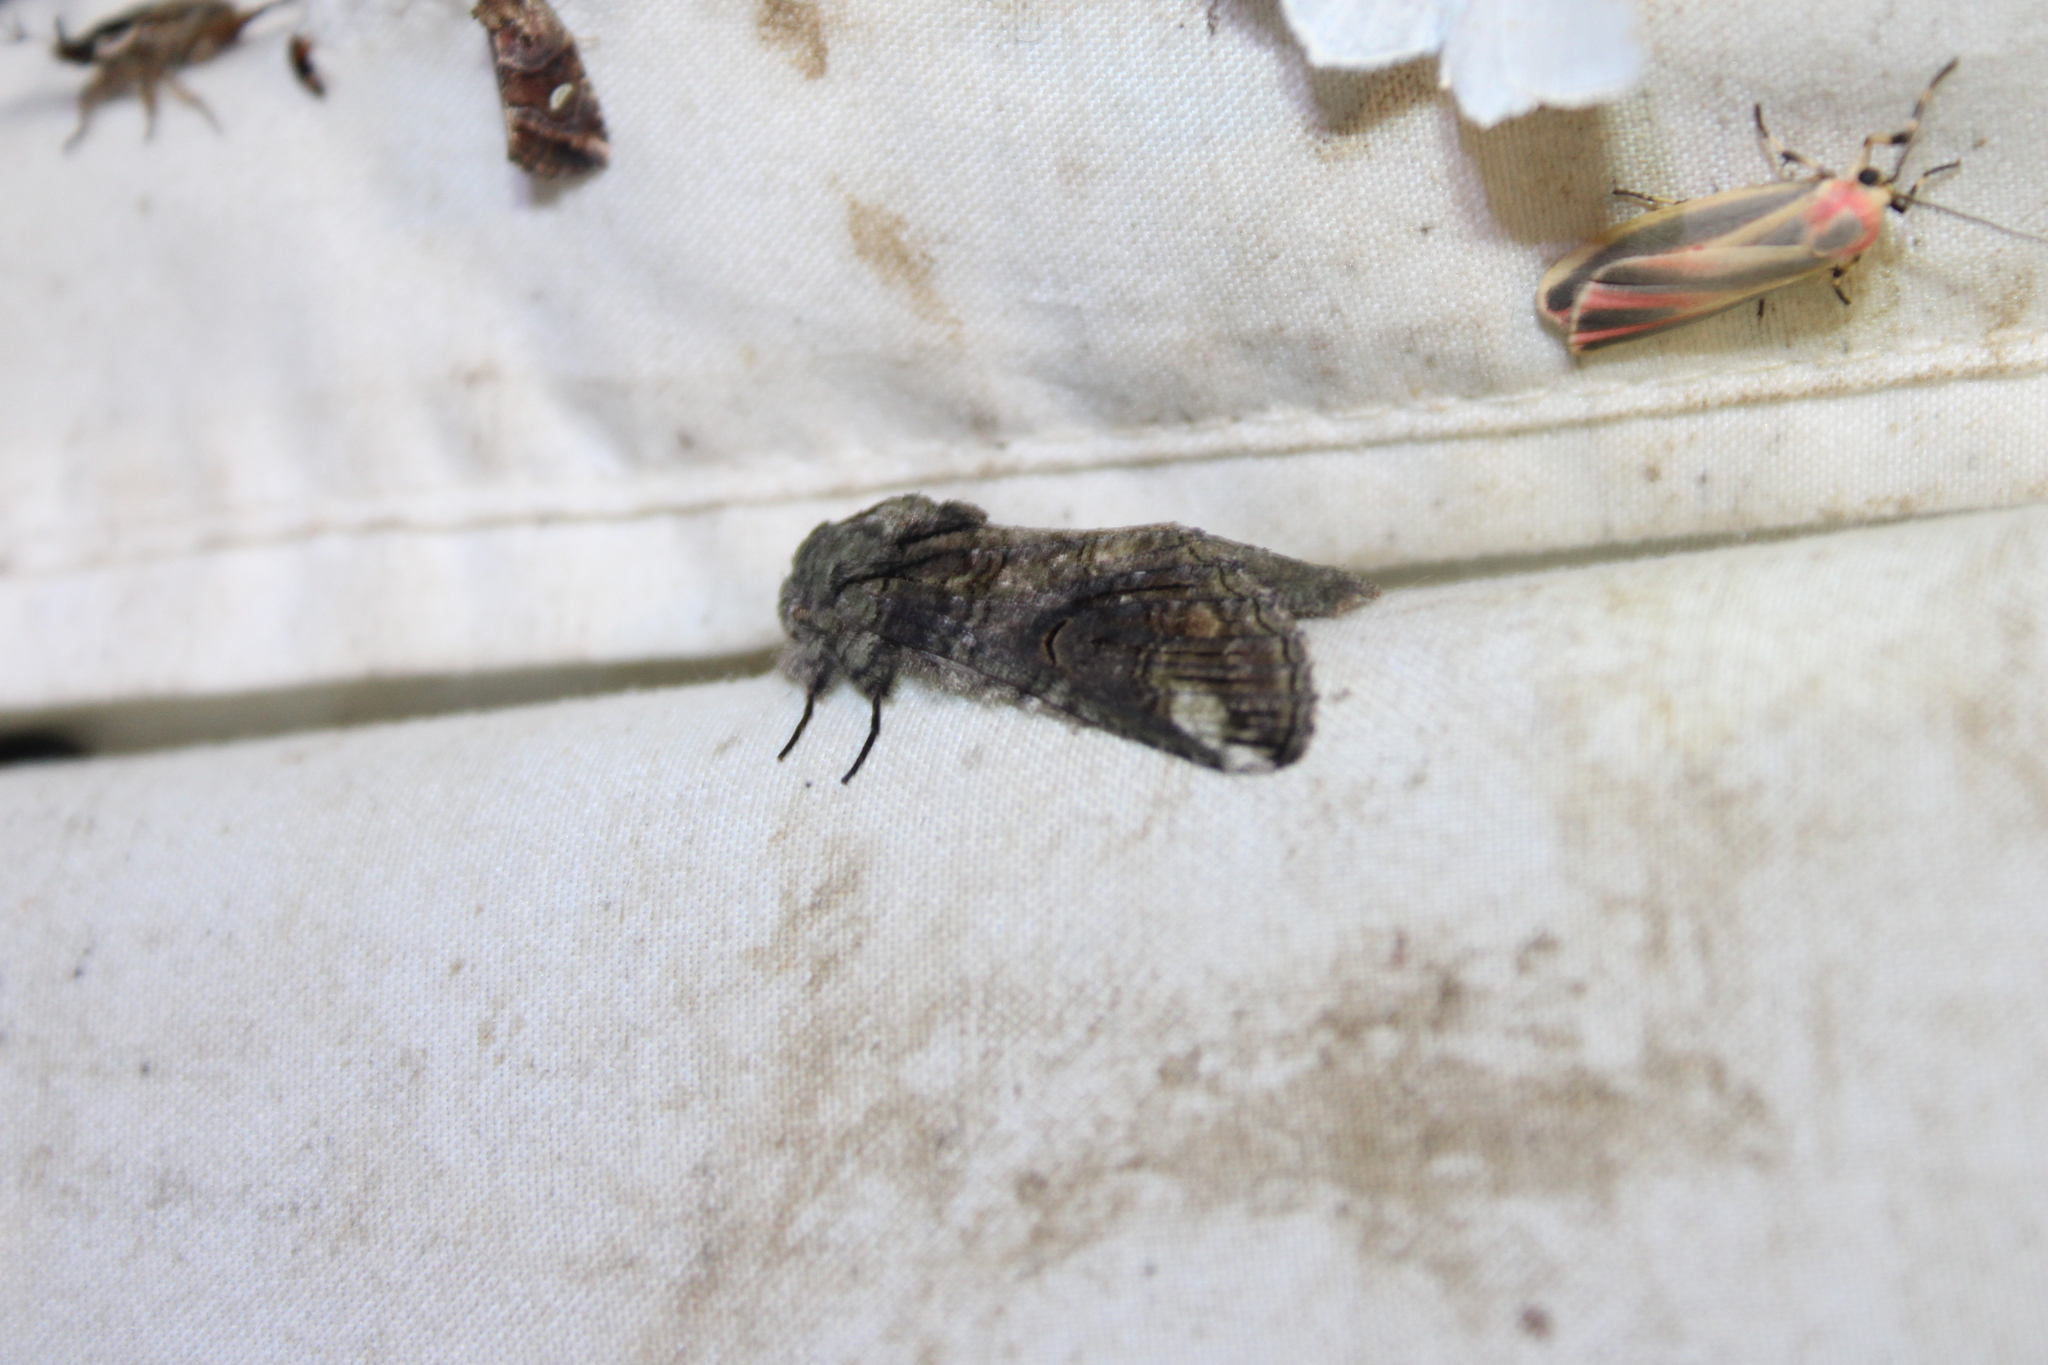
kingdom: Animalia
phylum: Arthropoda
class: Insecta
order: Lepidoptera
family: Notodontidae
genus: Heterocampa
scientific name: Heterocampa obliqua
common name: Oblique heterocampa
